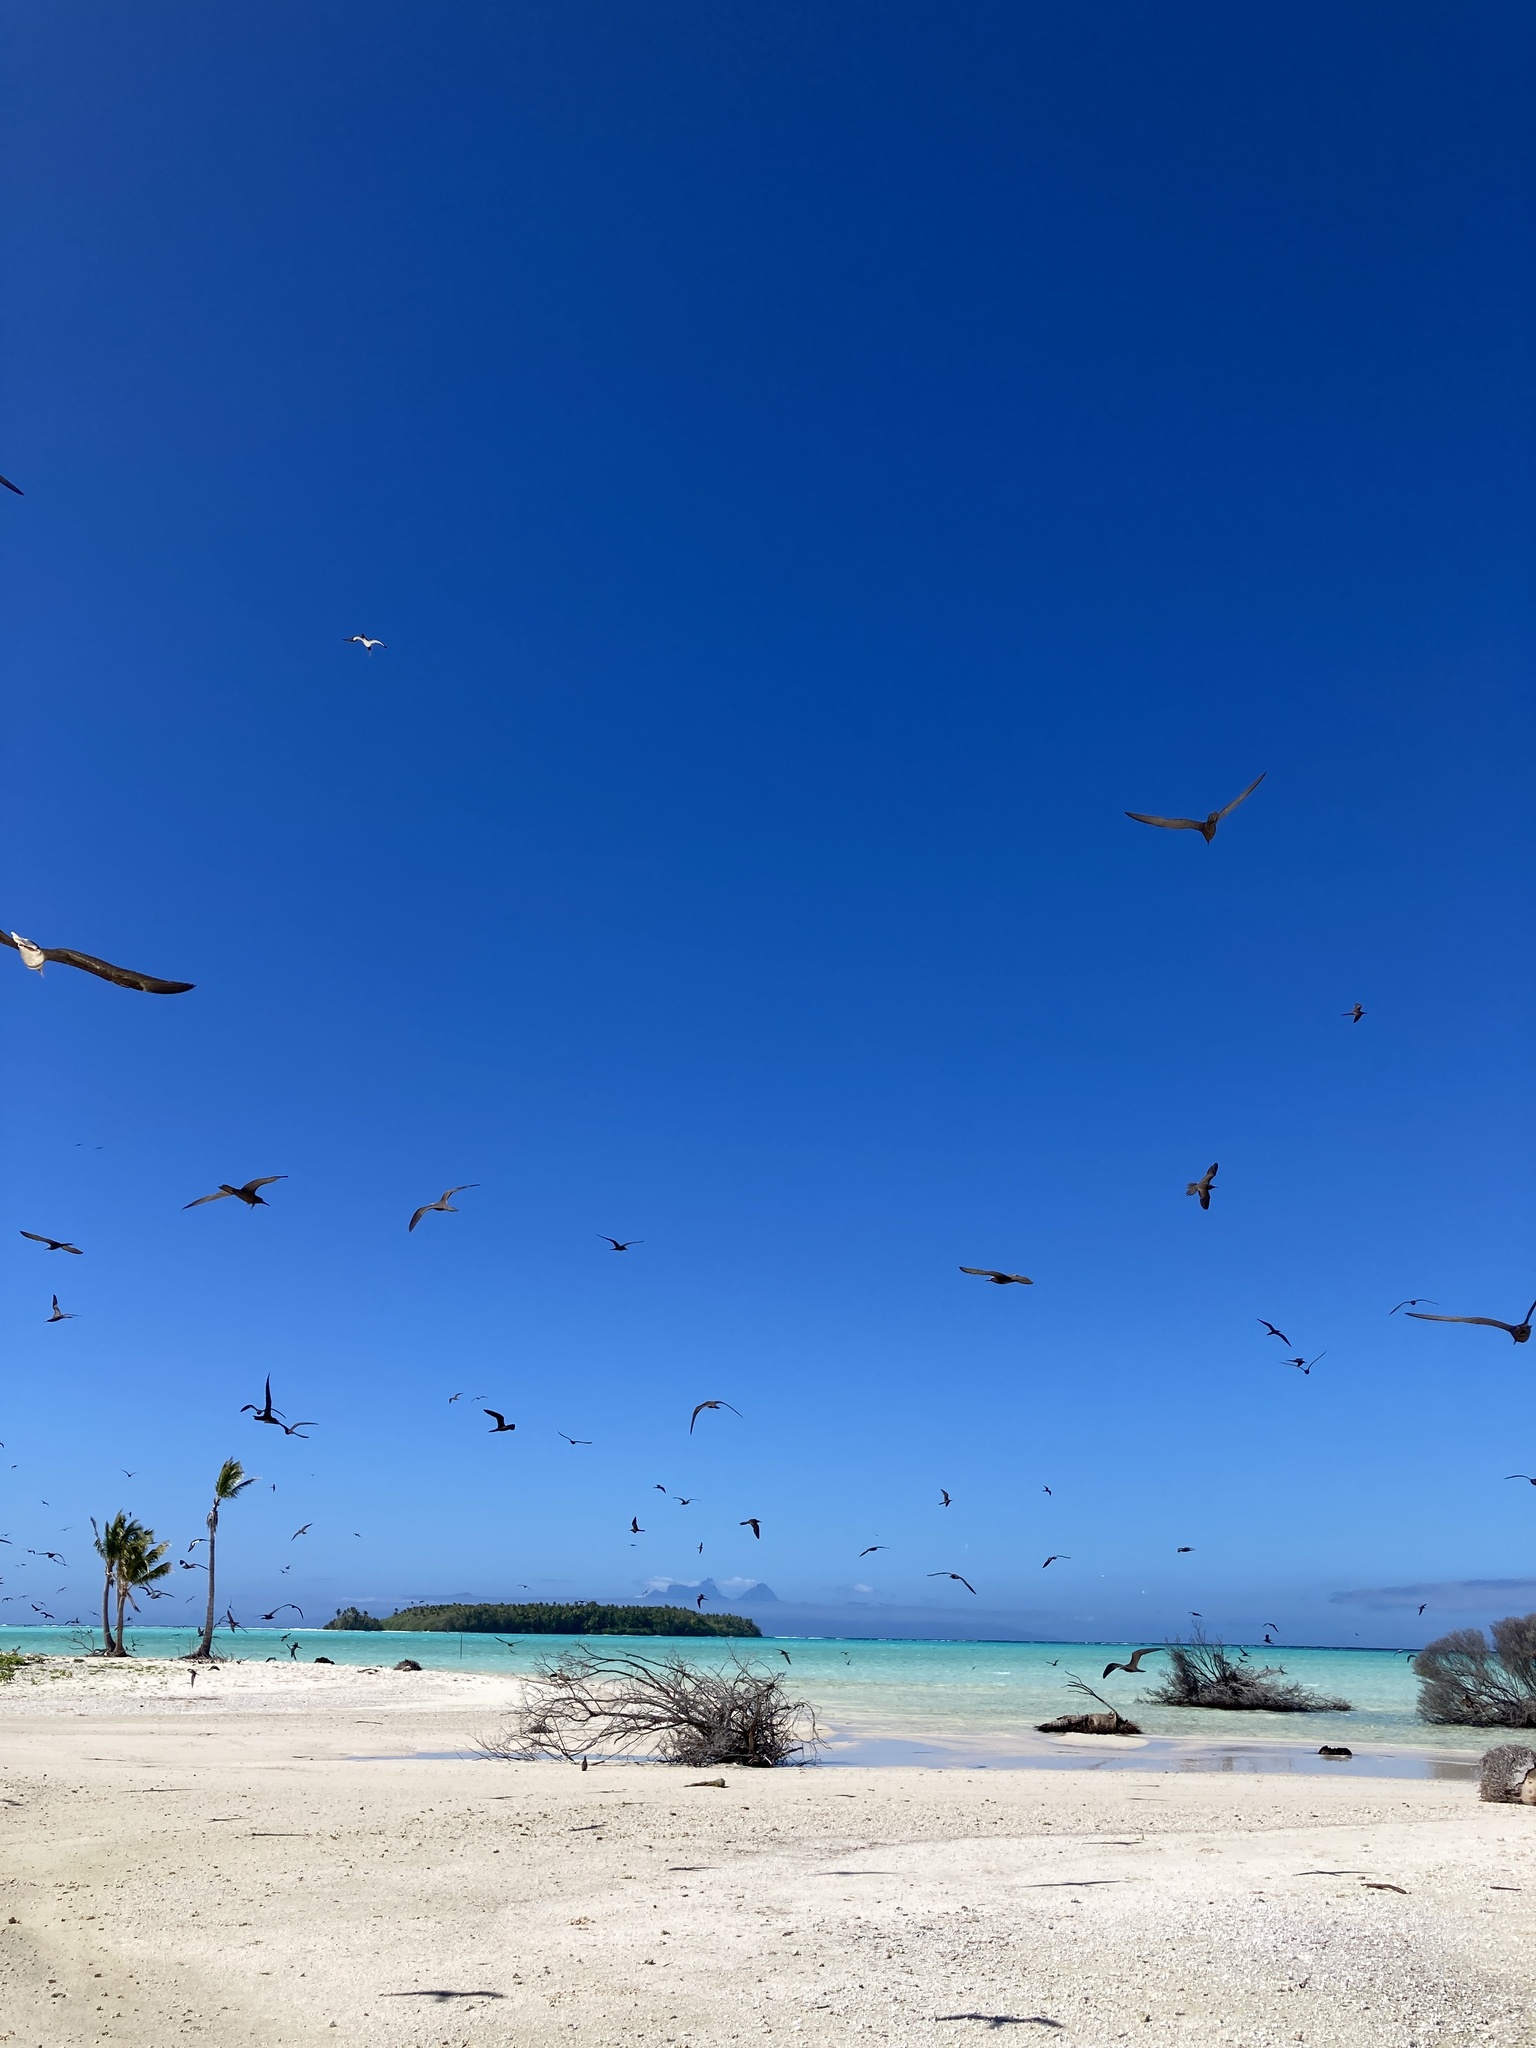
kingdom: Animalia
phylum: Chordata
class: Aves
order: Charadriiformes
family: Laridae
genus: Anous
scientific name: Anous stolidus
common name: Brown noddy
